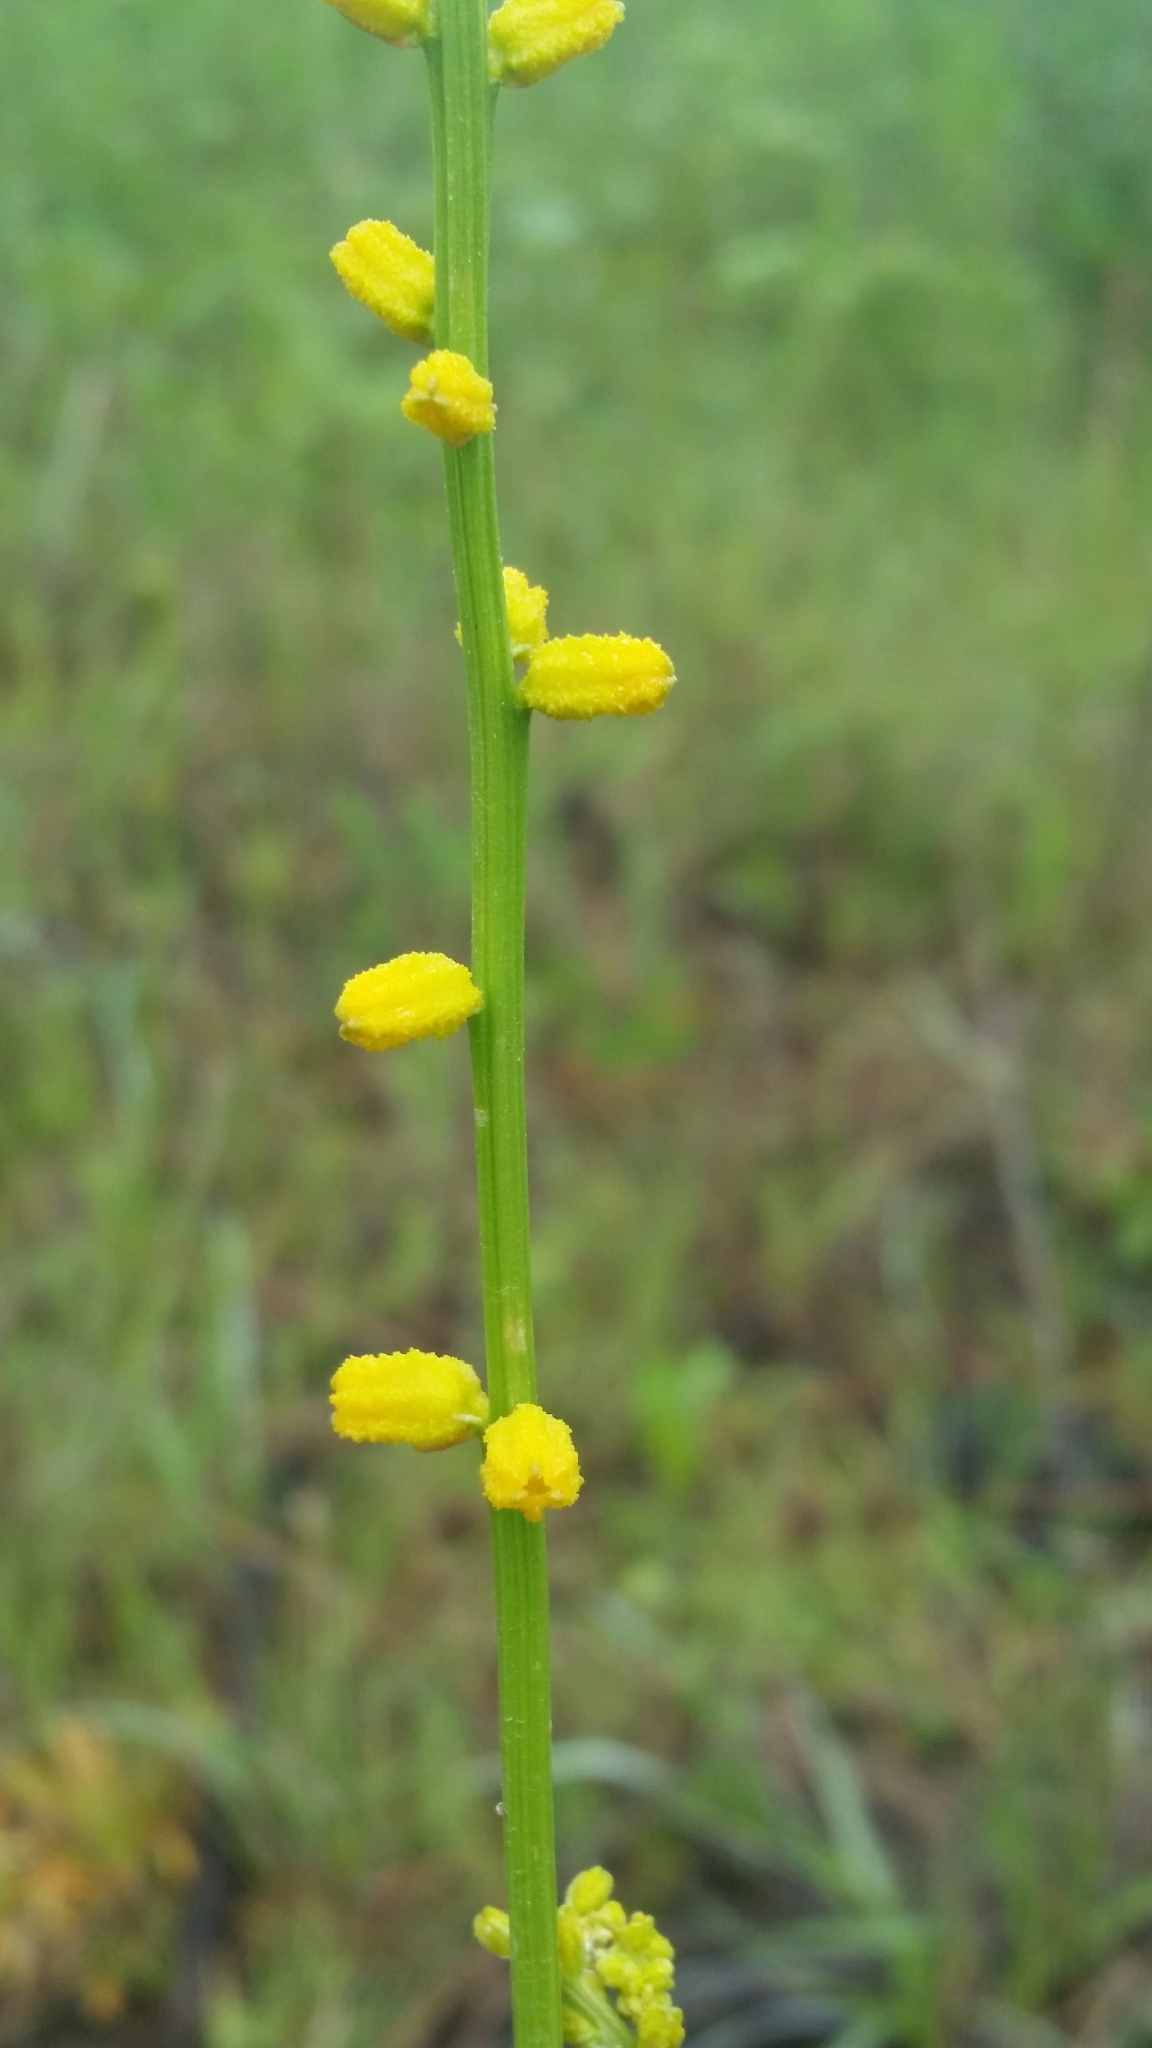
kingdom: Plantae
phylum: Tracheophyta
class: Liliopsida
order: Dioscoreales
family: Nartheciaceae
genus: Aletris
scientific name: Aletris aurea
